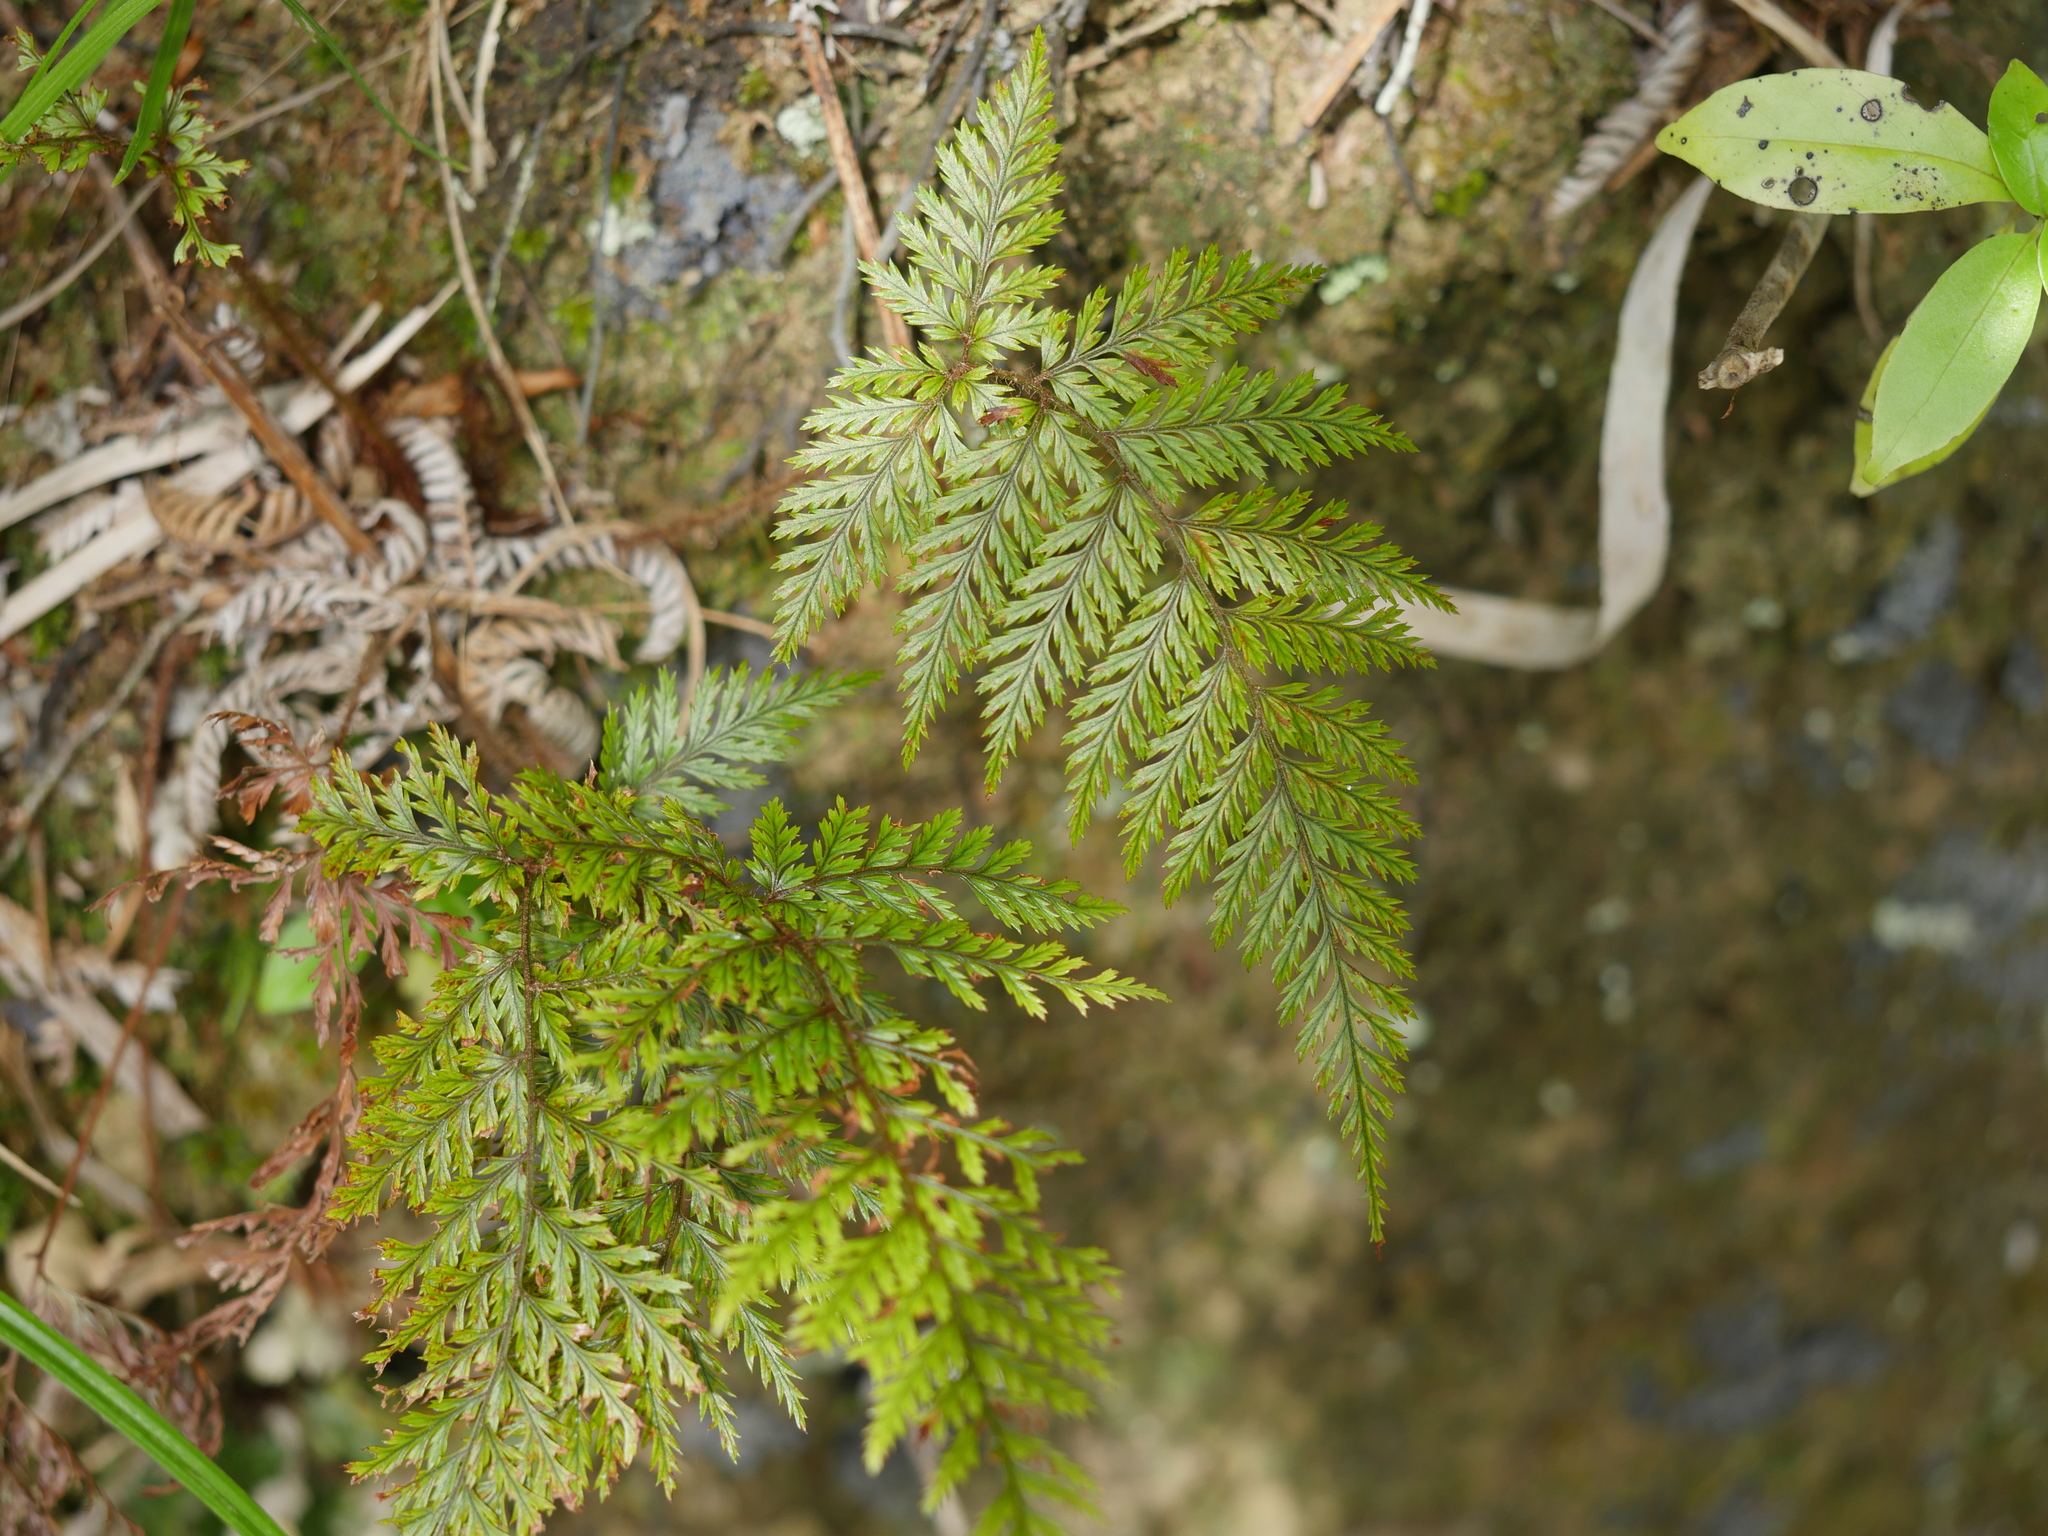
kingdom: Plantae
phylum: Tracheophyta
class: Polypodiopsida
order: Polypodiales
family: Dryopteridaceae
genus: Lastreopsis
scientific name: Lastreopsis hispida
